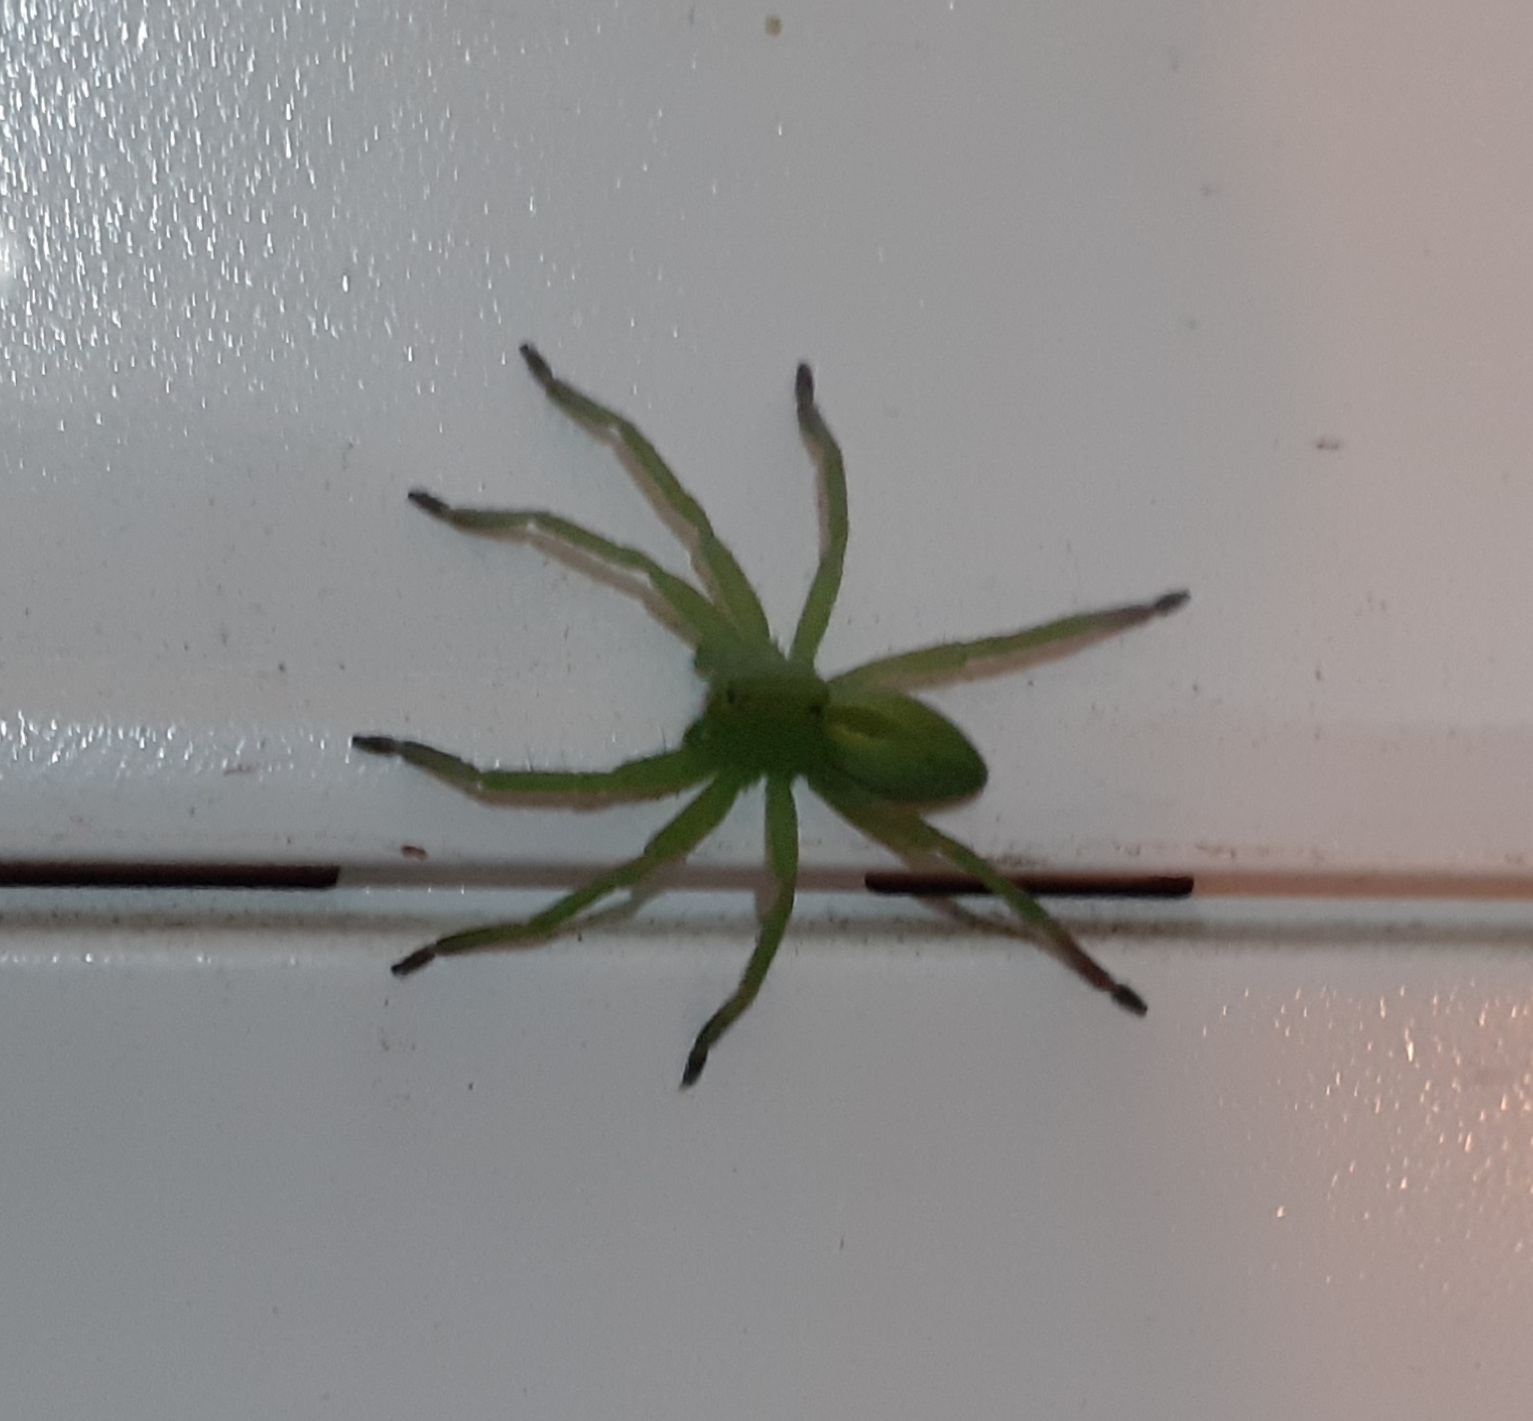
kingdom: Animalia
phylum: Arthropoda
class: Arachnida
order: Araneae
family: Sparassidae
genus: Micrommata
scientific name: Micrommata ligurina
